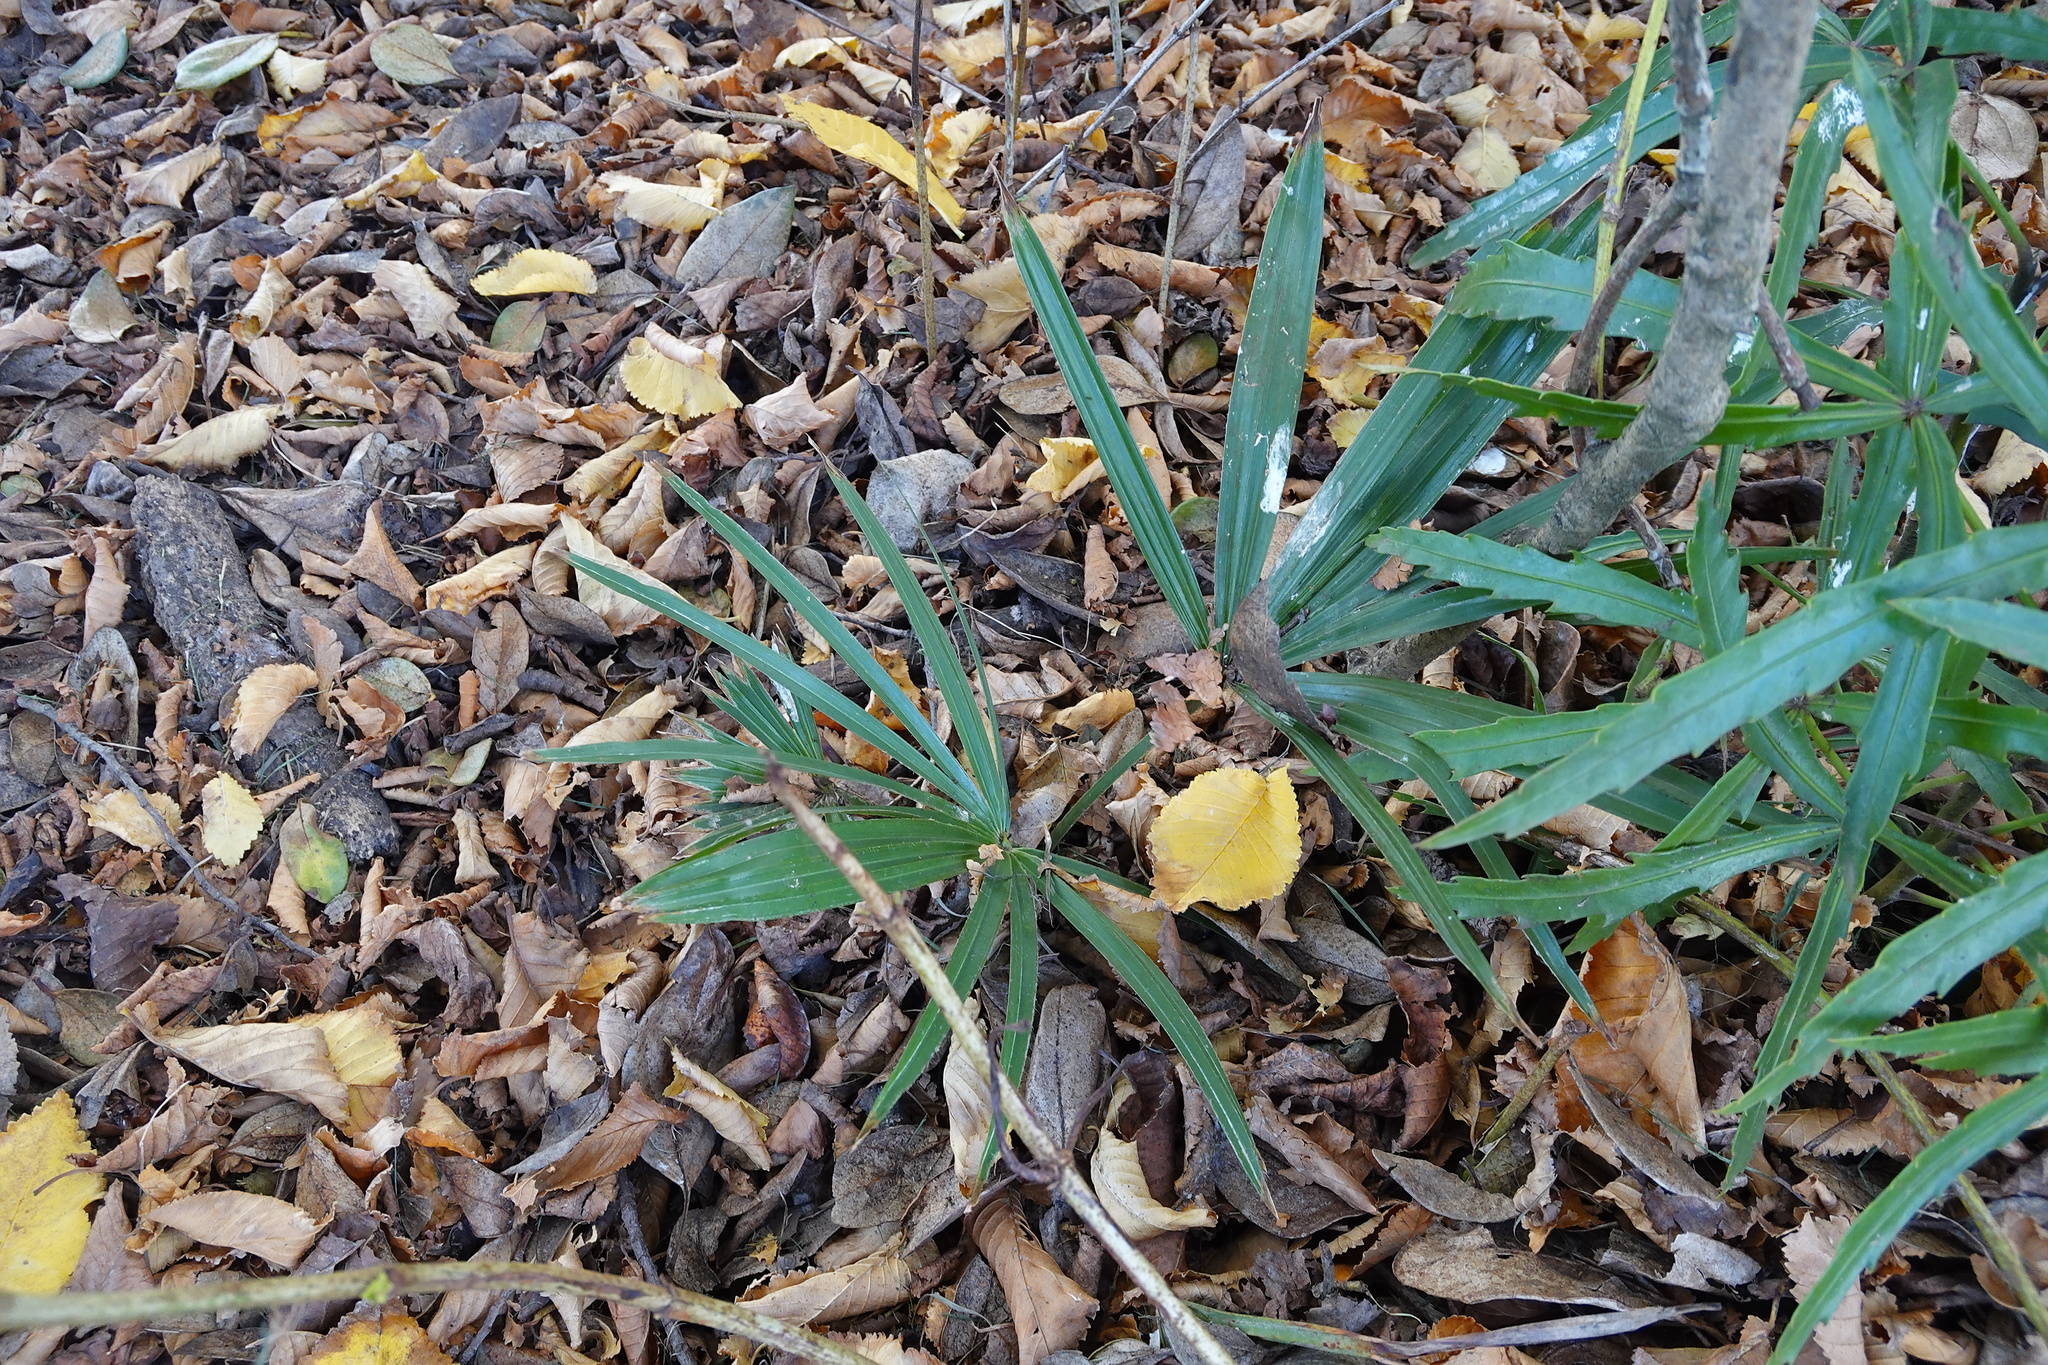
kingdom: Plantae
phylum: Tracheophyta
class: Liliopsida
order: Arecales
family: Arecaceae
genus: Trachycarpus
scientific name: Trachycarpus fortunei
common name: Chusan palm
